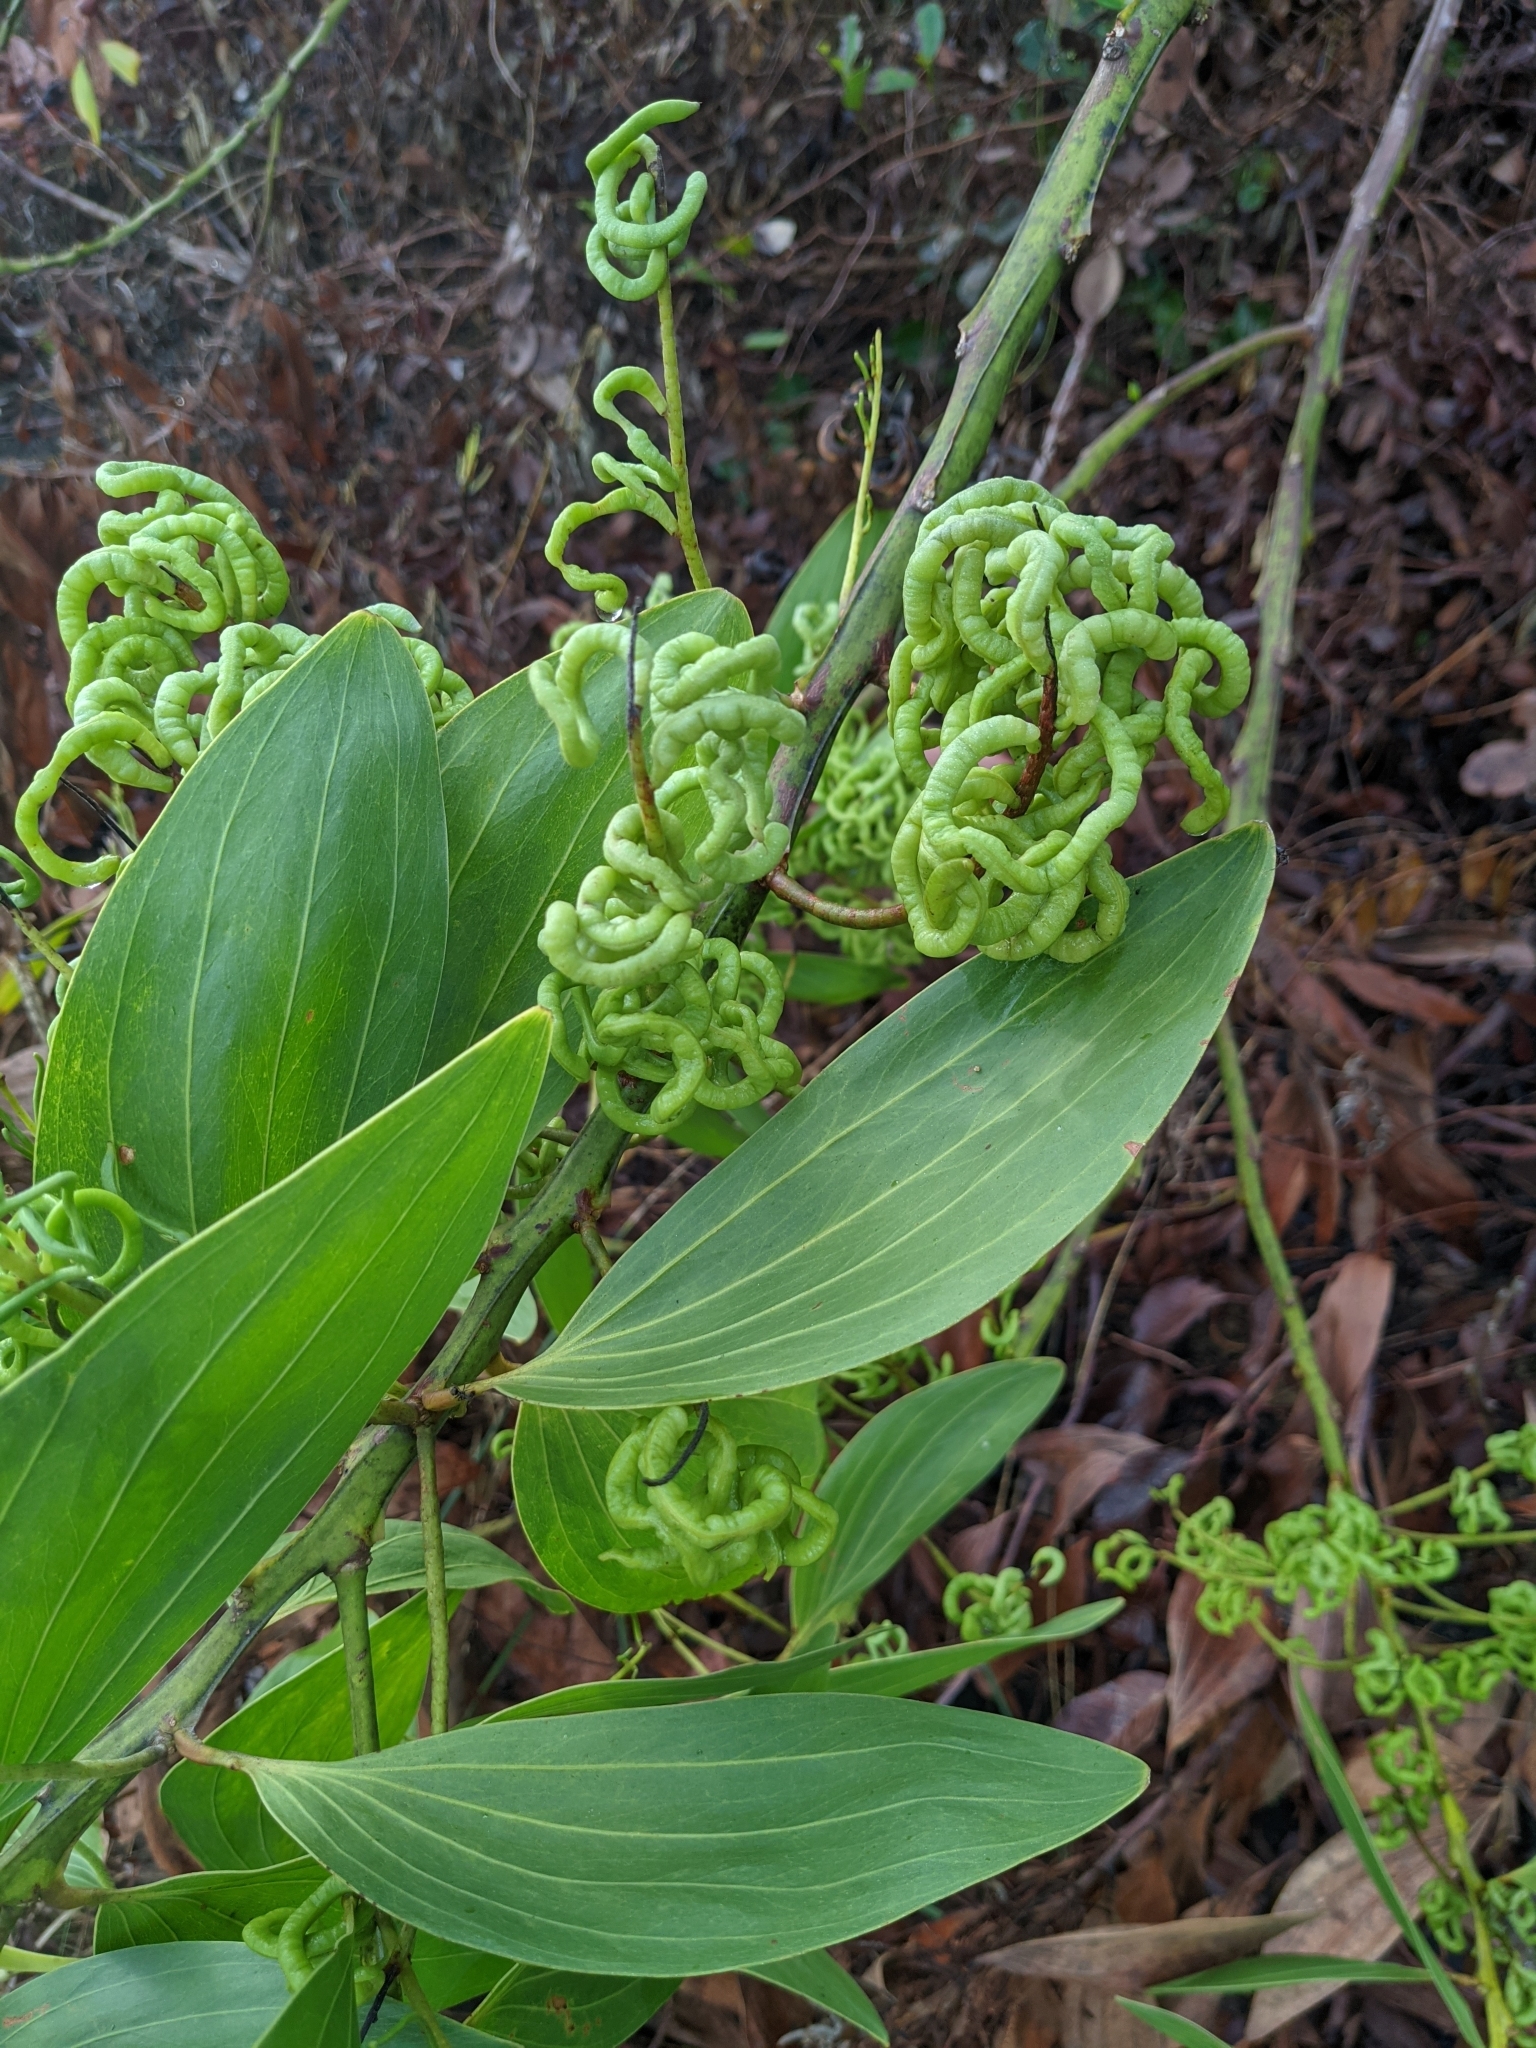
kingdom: Plantae
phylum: Tracheophyta
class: Magnoliopsida
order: Fabales
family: Fabaceae
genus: Acacia
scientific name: Acacia mangium
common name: Black wattle
